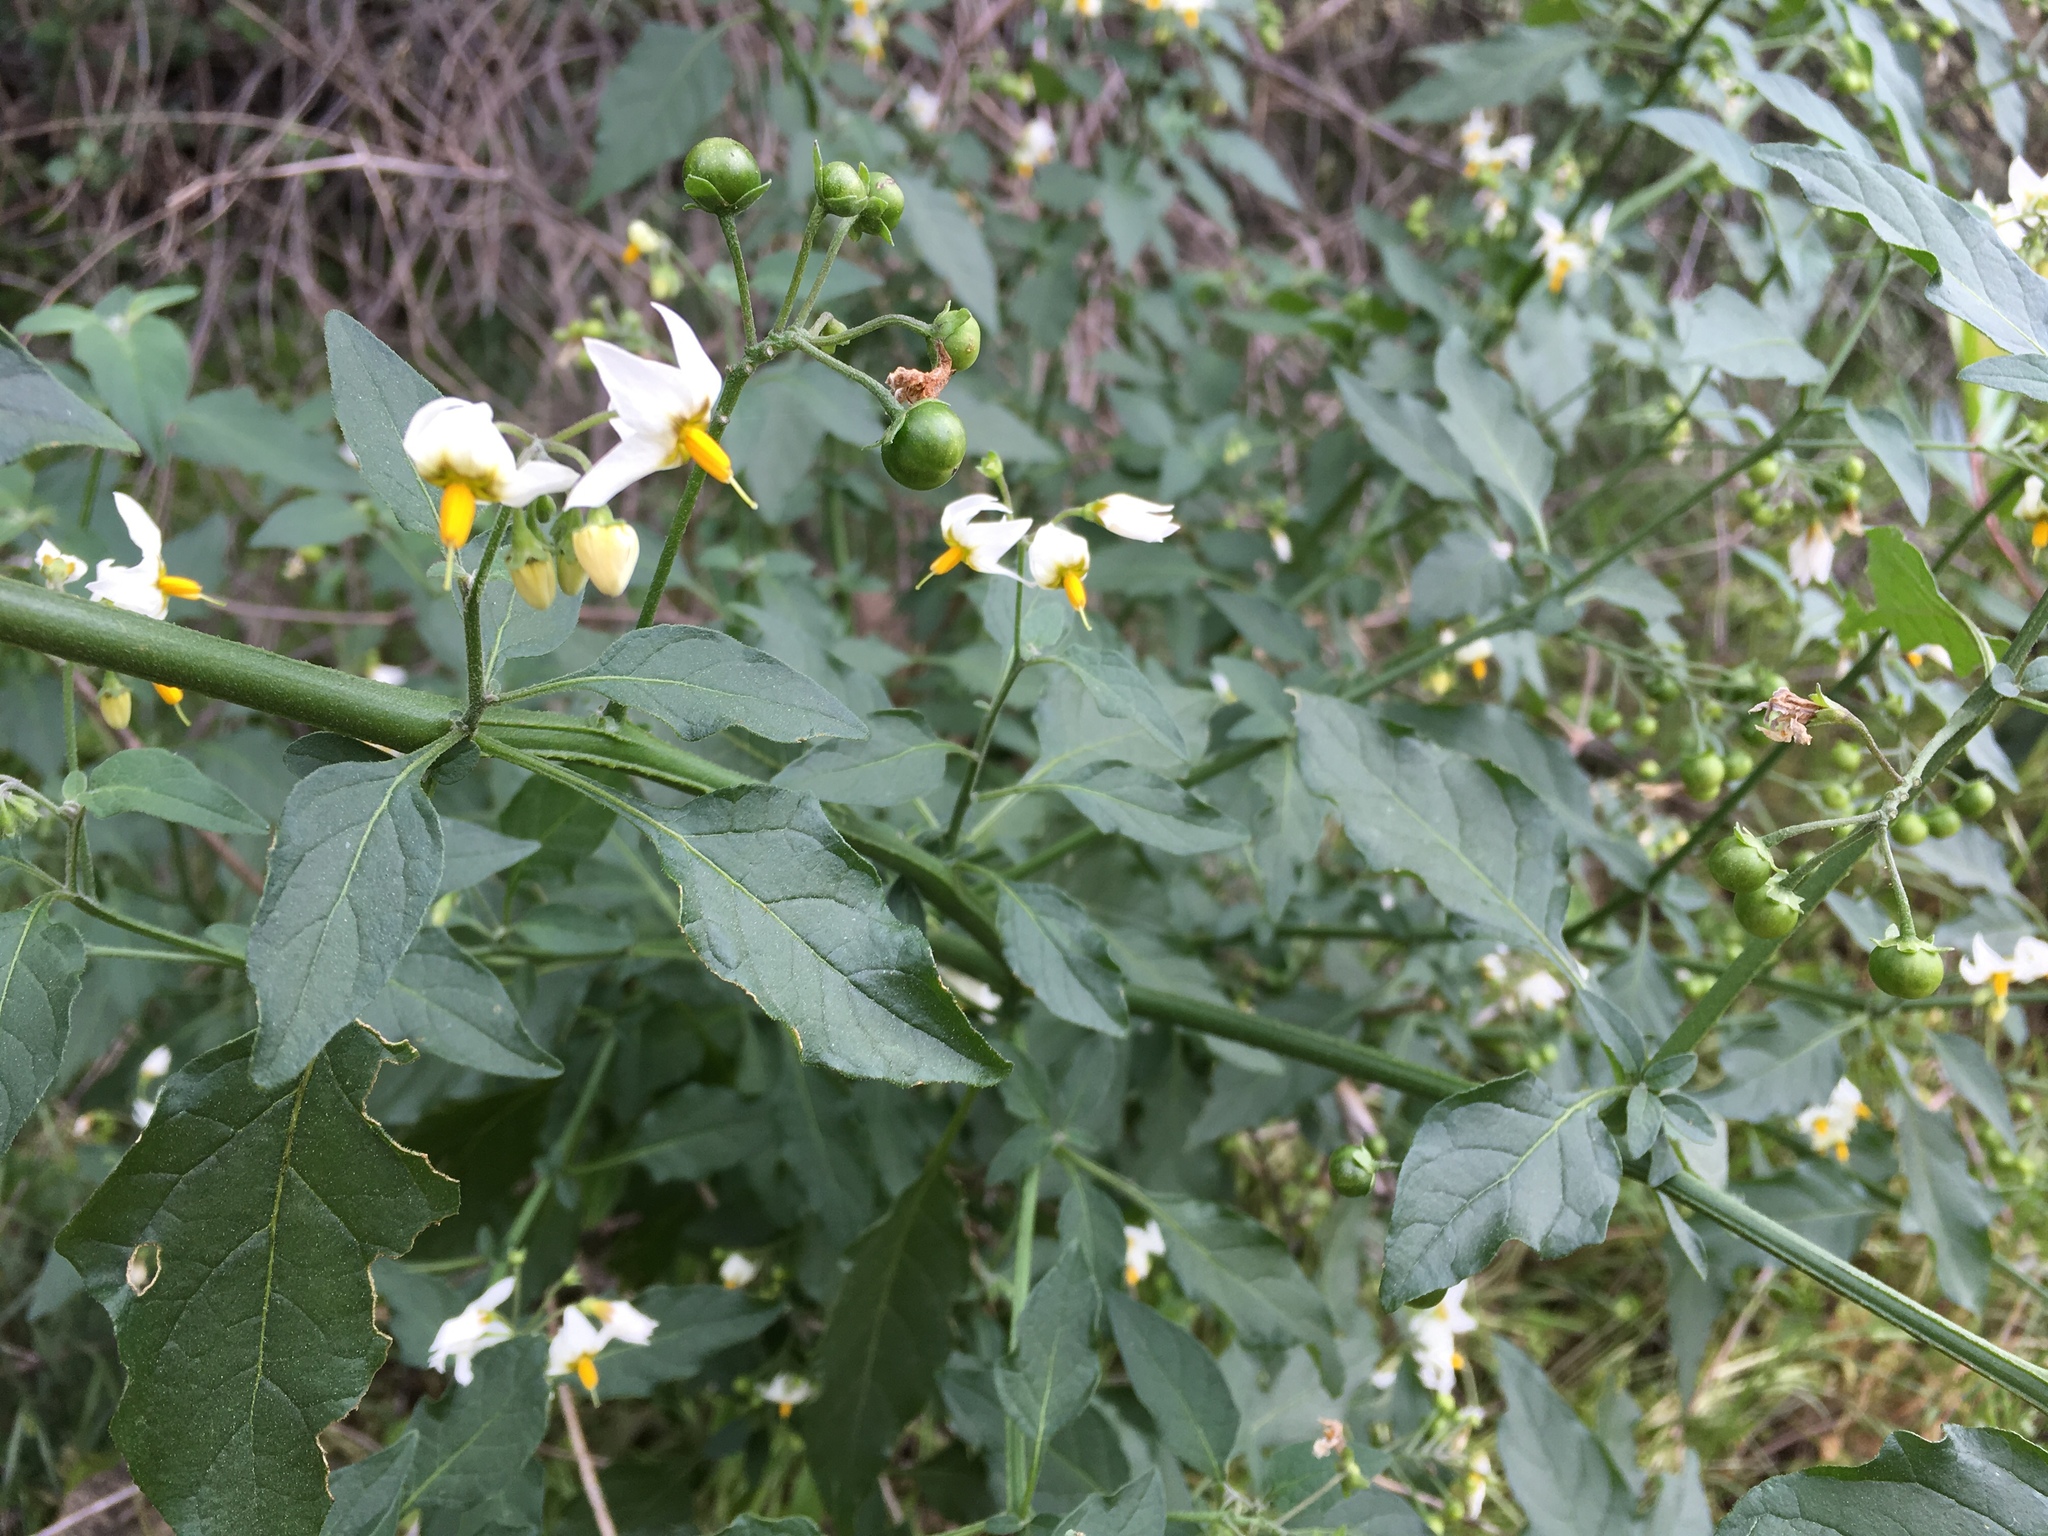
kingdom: Plantae
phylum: Tracheophyta
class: Magnoliopsida
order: Solanales
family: Solanaceae
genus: Solanum
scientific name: Solanum douglasii
